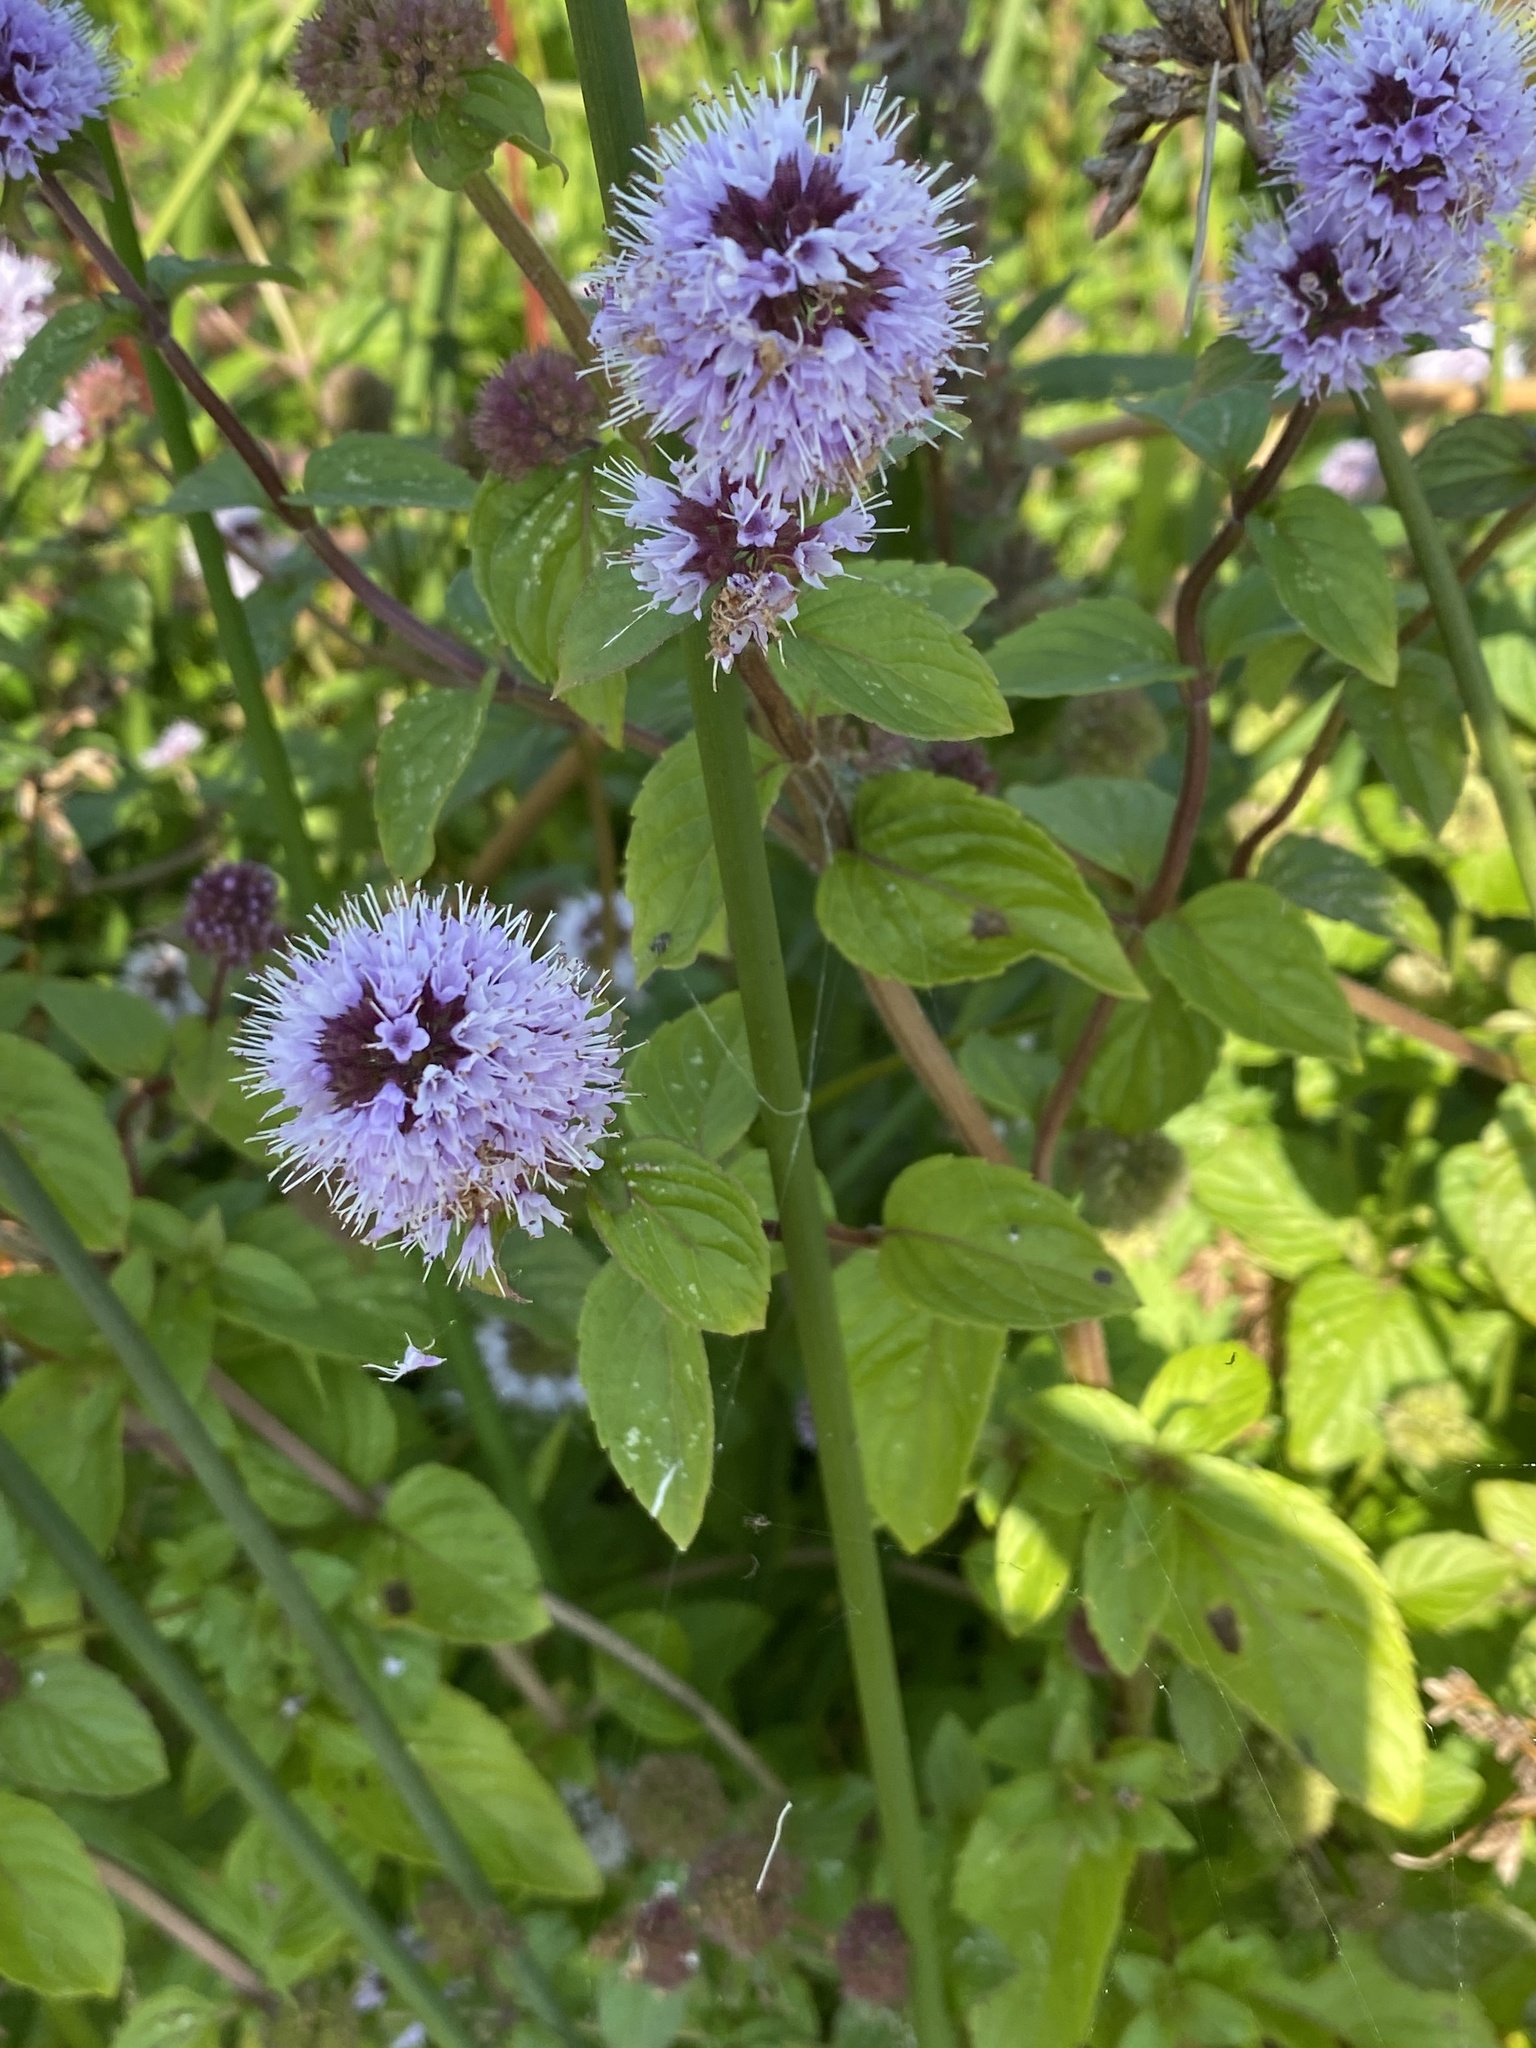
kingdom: Plantae
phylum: Tracheophyta
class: Magnoliopsida
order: Lamiales
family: Lamiaceae
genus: Mentha
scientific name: Mentha aquatica
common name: Water mint
